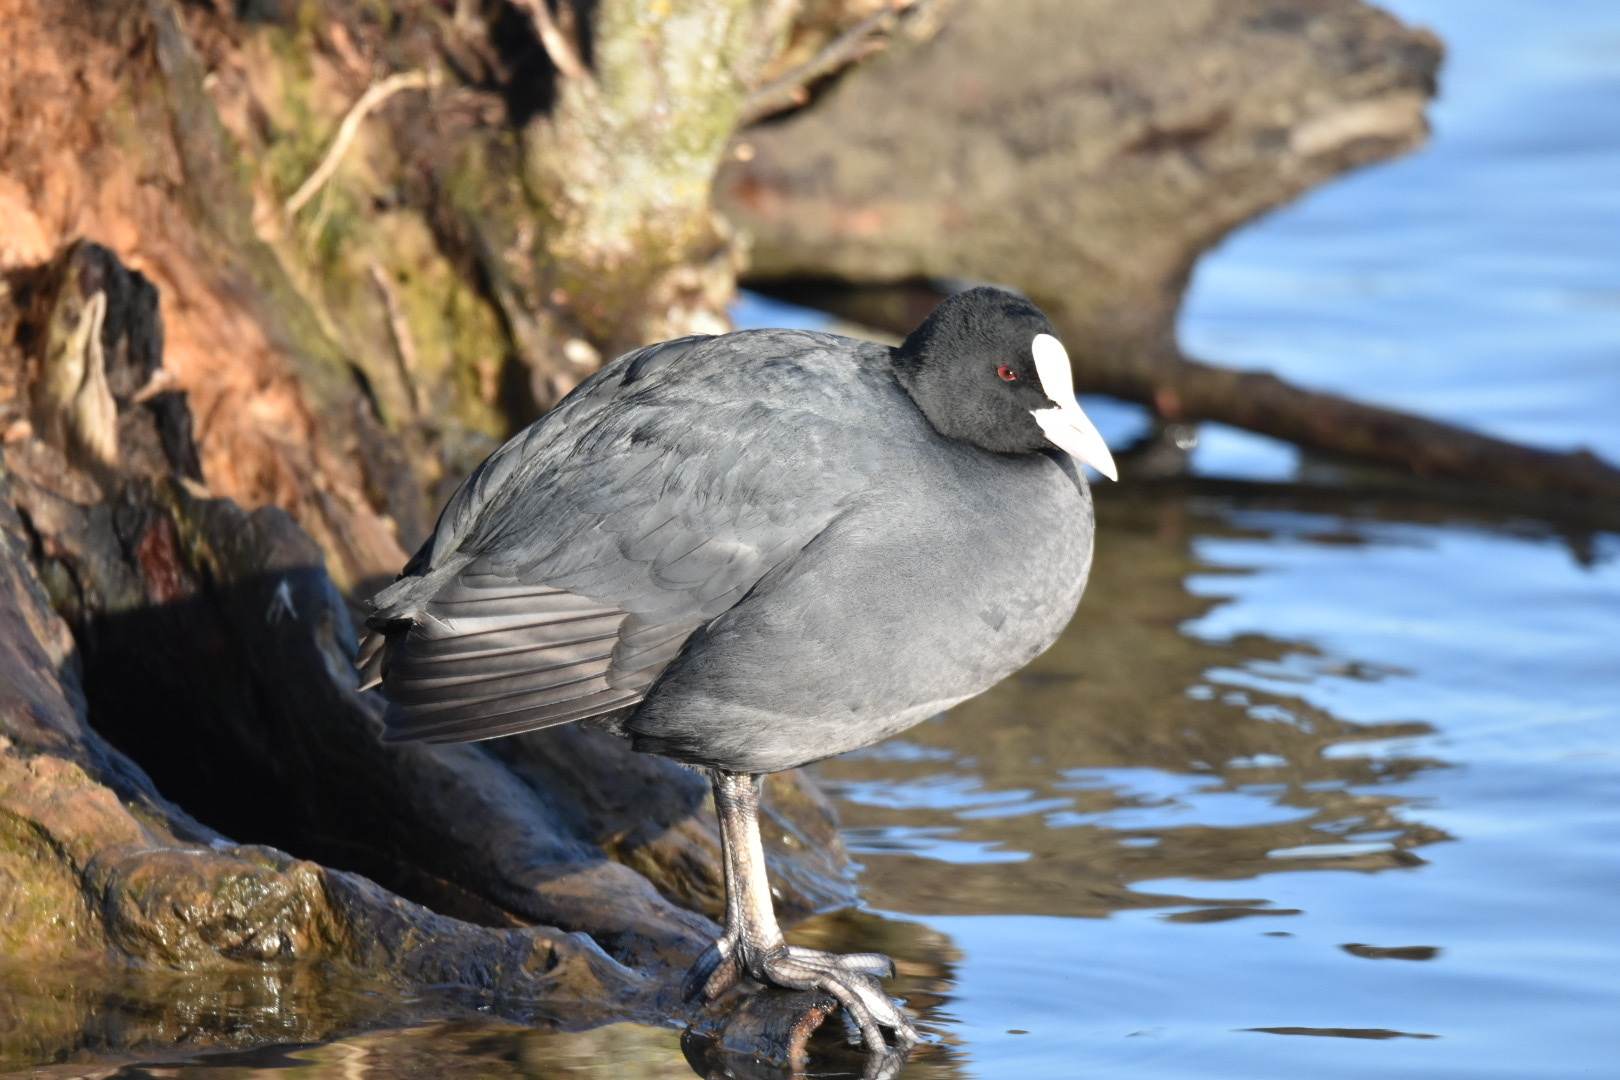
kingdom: Animalia
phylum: Chordata
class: Aves
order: Gruiformes
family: Rallidae
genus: Fulica
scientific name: Fulica atra
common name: Eurasian coot
